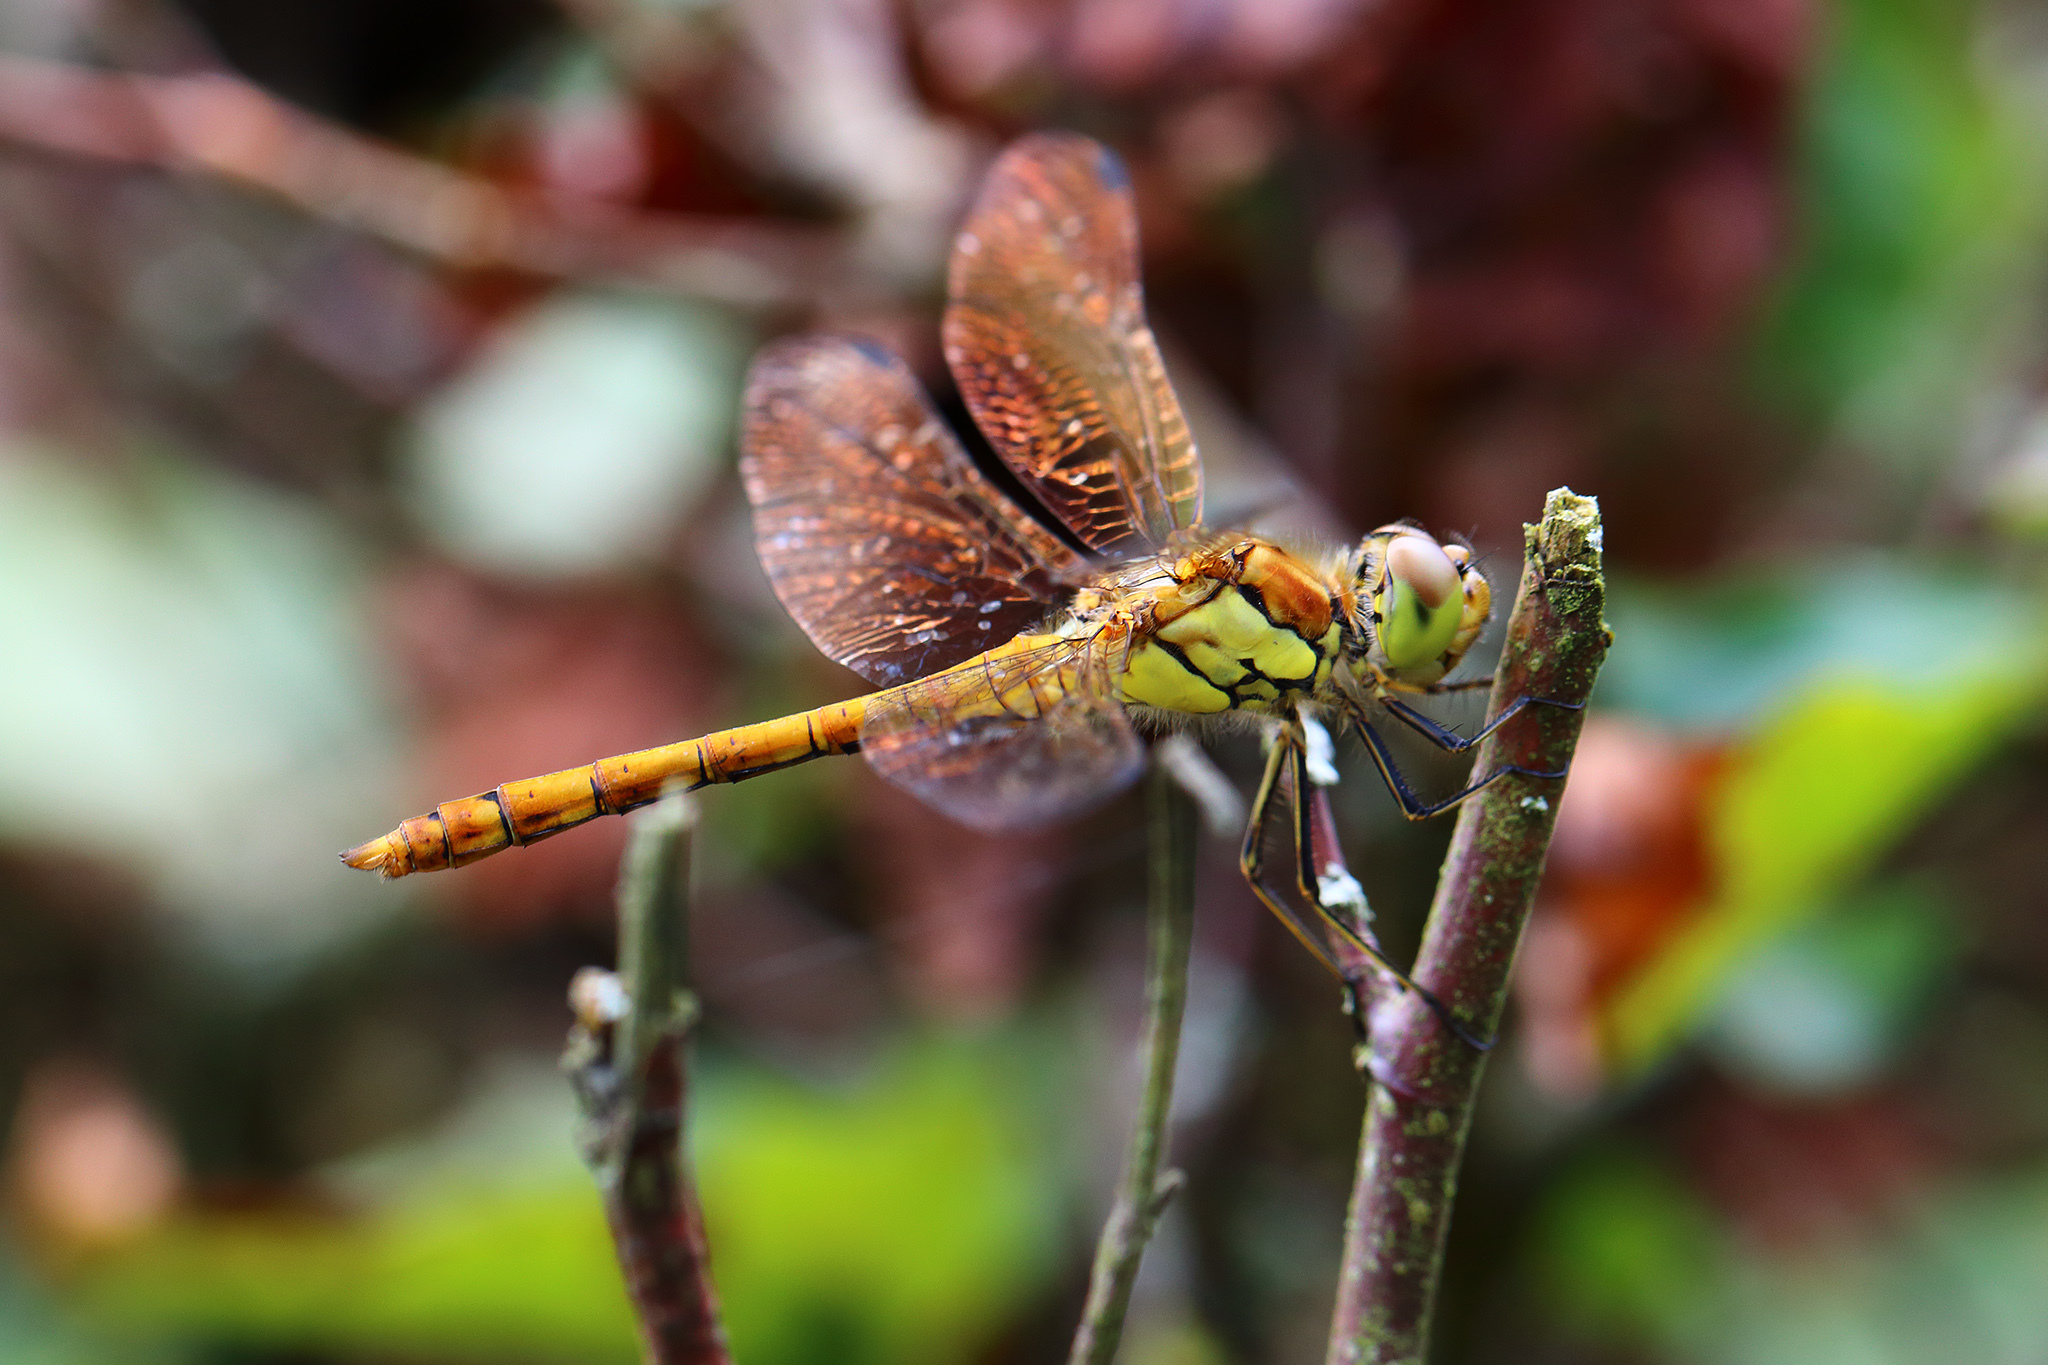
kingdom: Animalia
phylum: Arthropoda
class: Insecta
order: Odonata
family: Libellulidae
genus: Sympetrum
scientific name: Sympetrum striolatum
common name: Common darter
